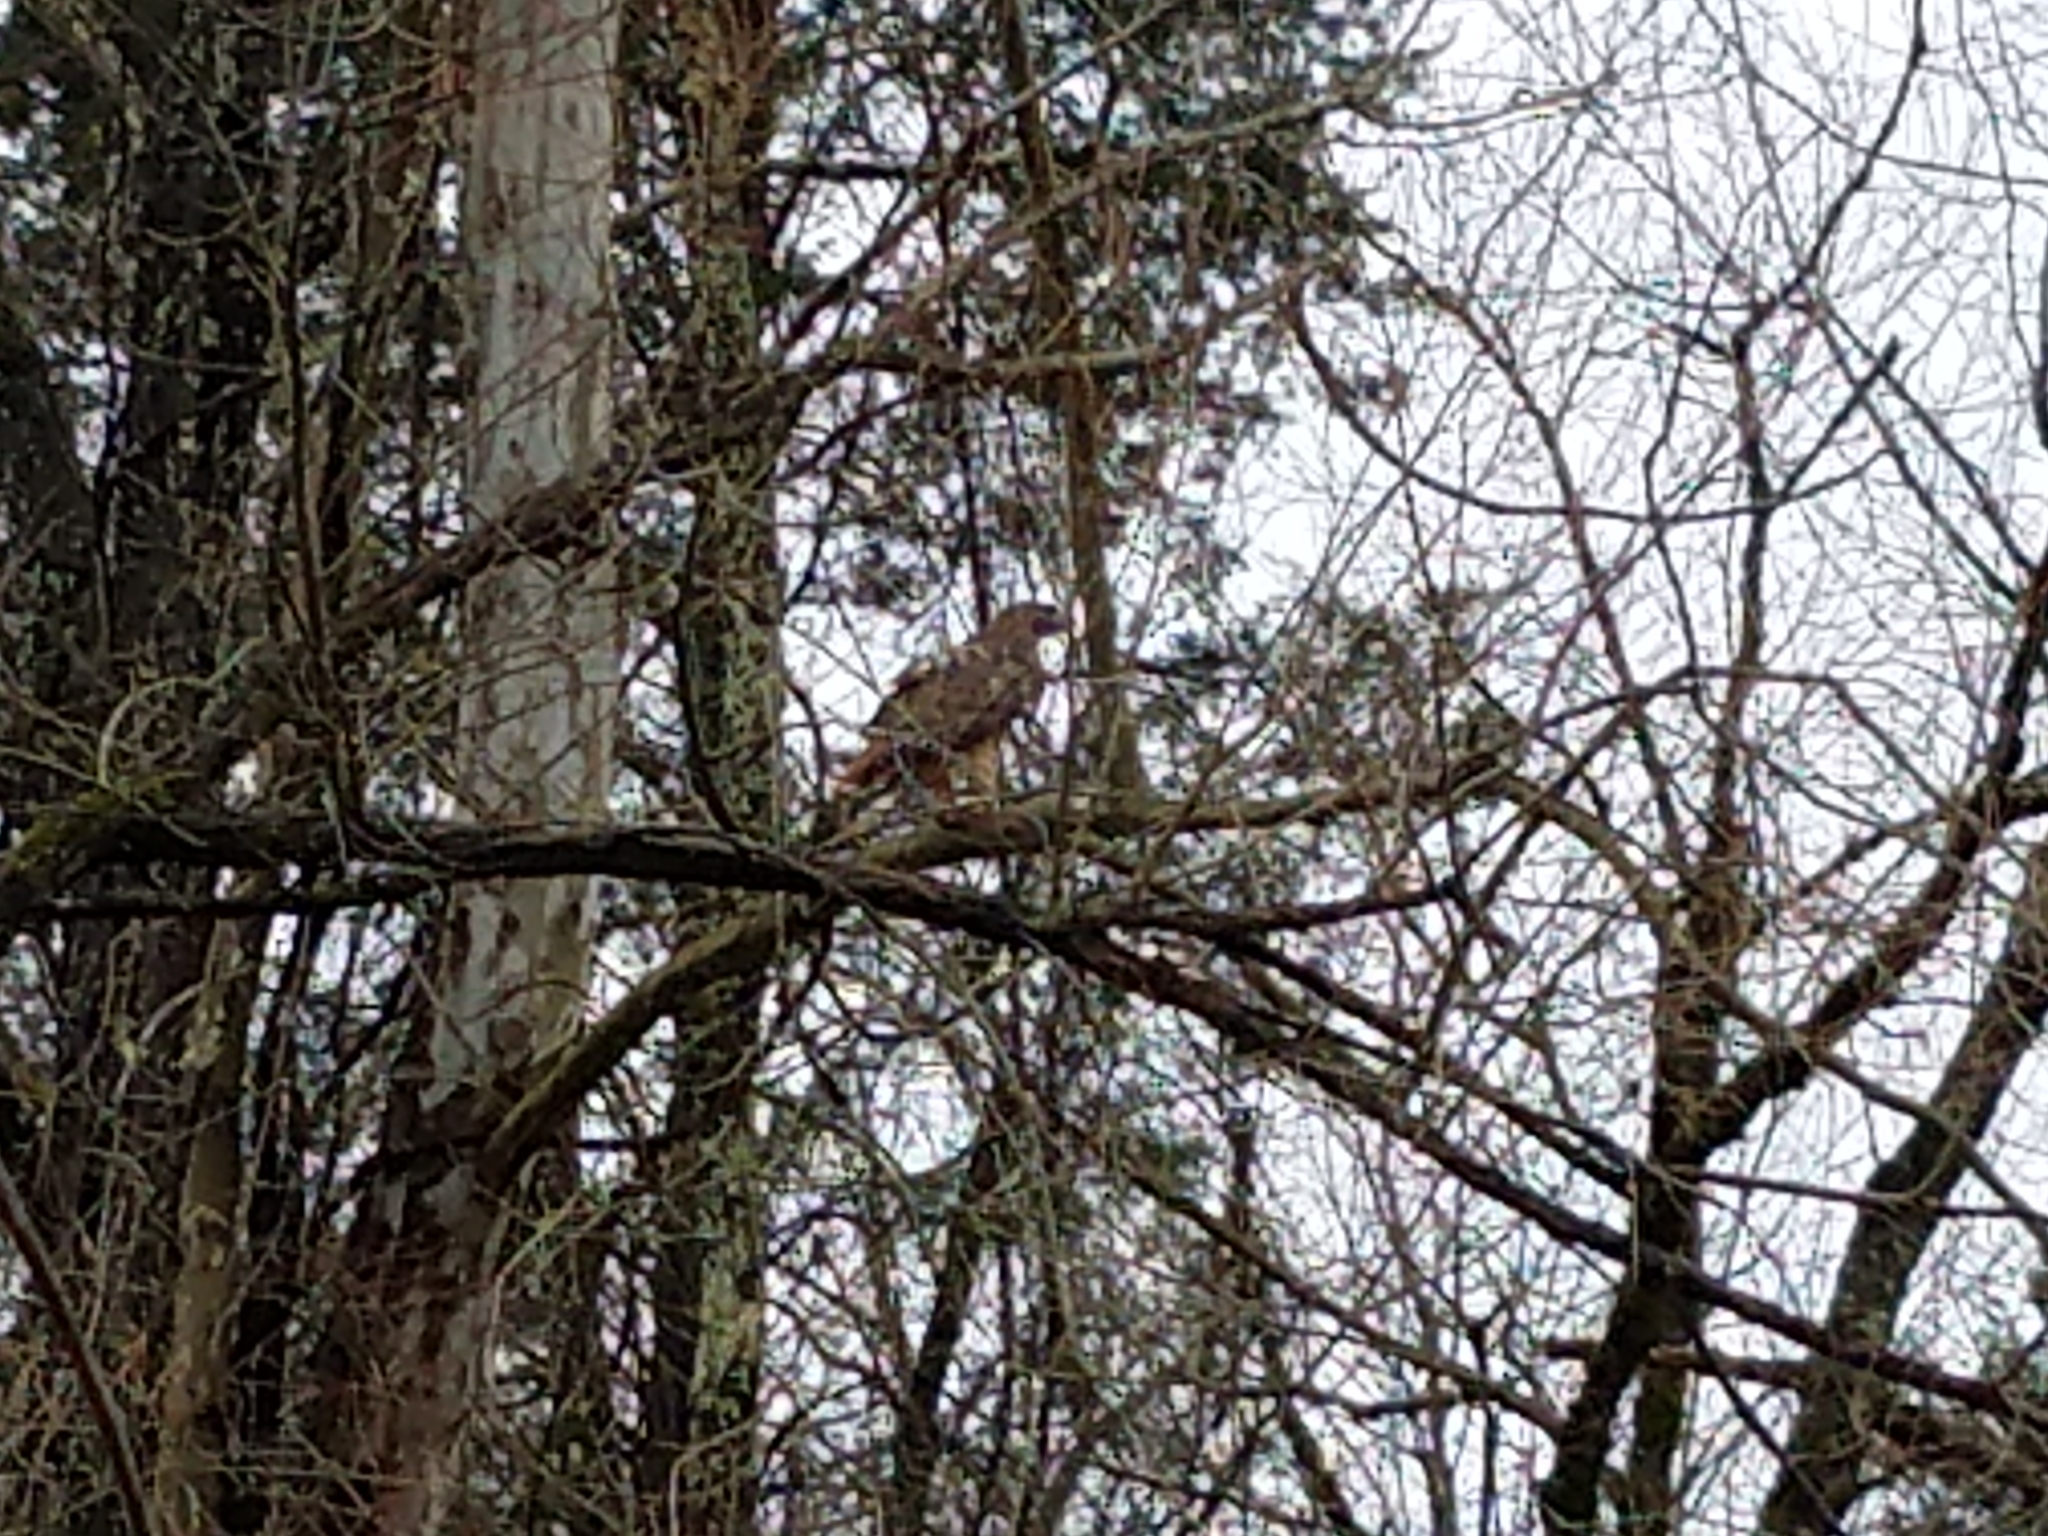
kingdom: Animalia
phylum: Chordata
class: Aves
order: Accipitriformes
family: Accipitridae
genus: Buteo
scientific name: Buteo jamaicensis
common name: Red-tailed hawk
